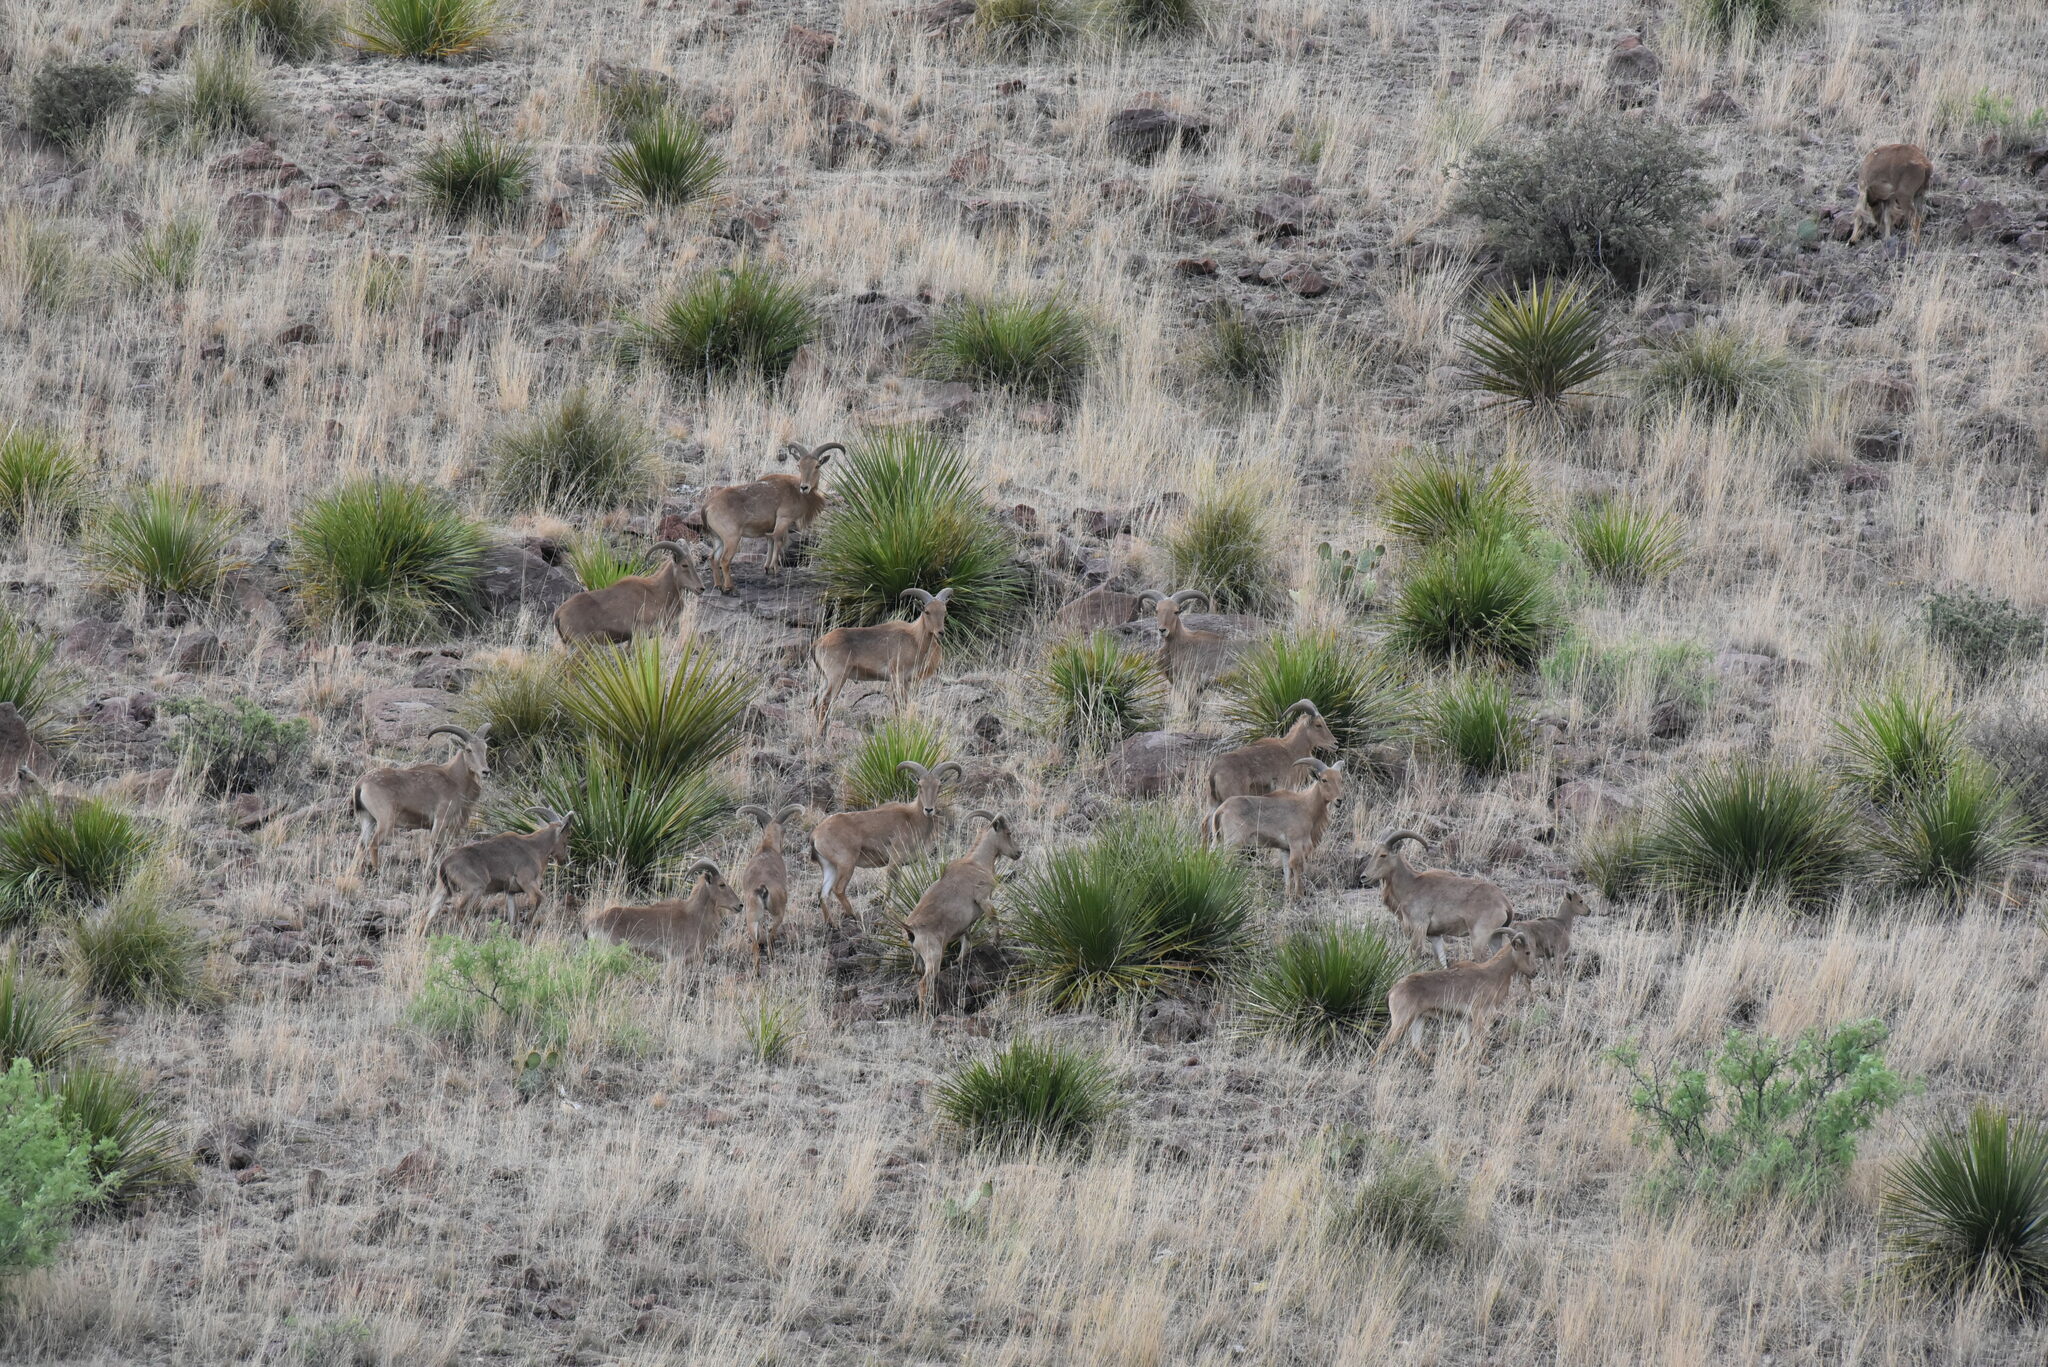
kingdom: Animalia
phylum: Chordata
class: Mammalia
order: Artiodactyla
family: Bovidae
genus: Ammotragus
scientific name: Ammotragus lervia
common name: Barbary sheep
